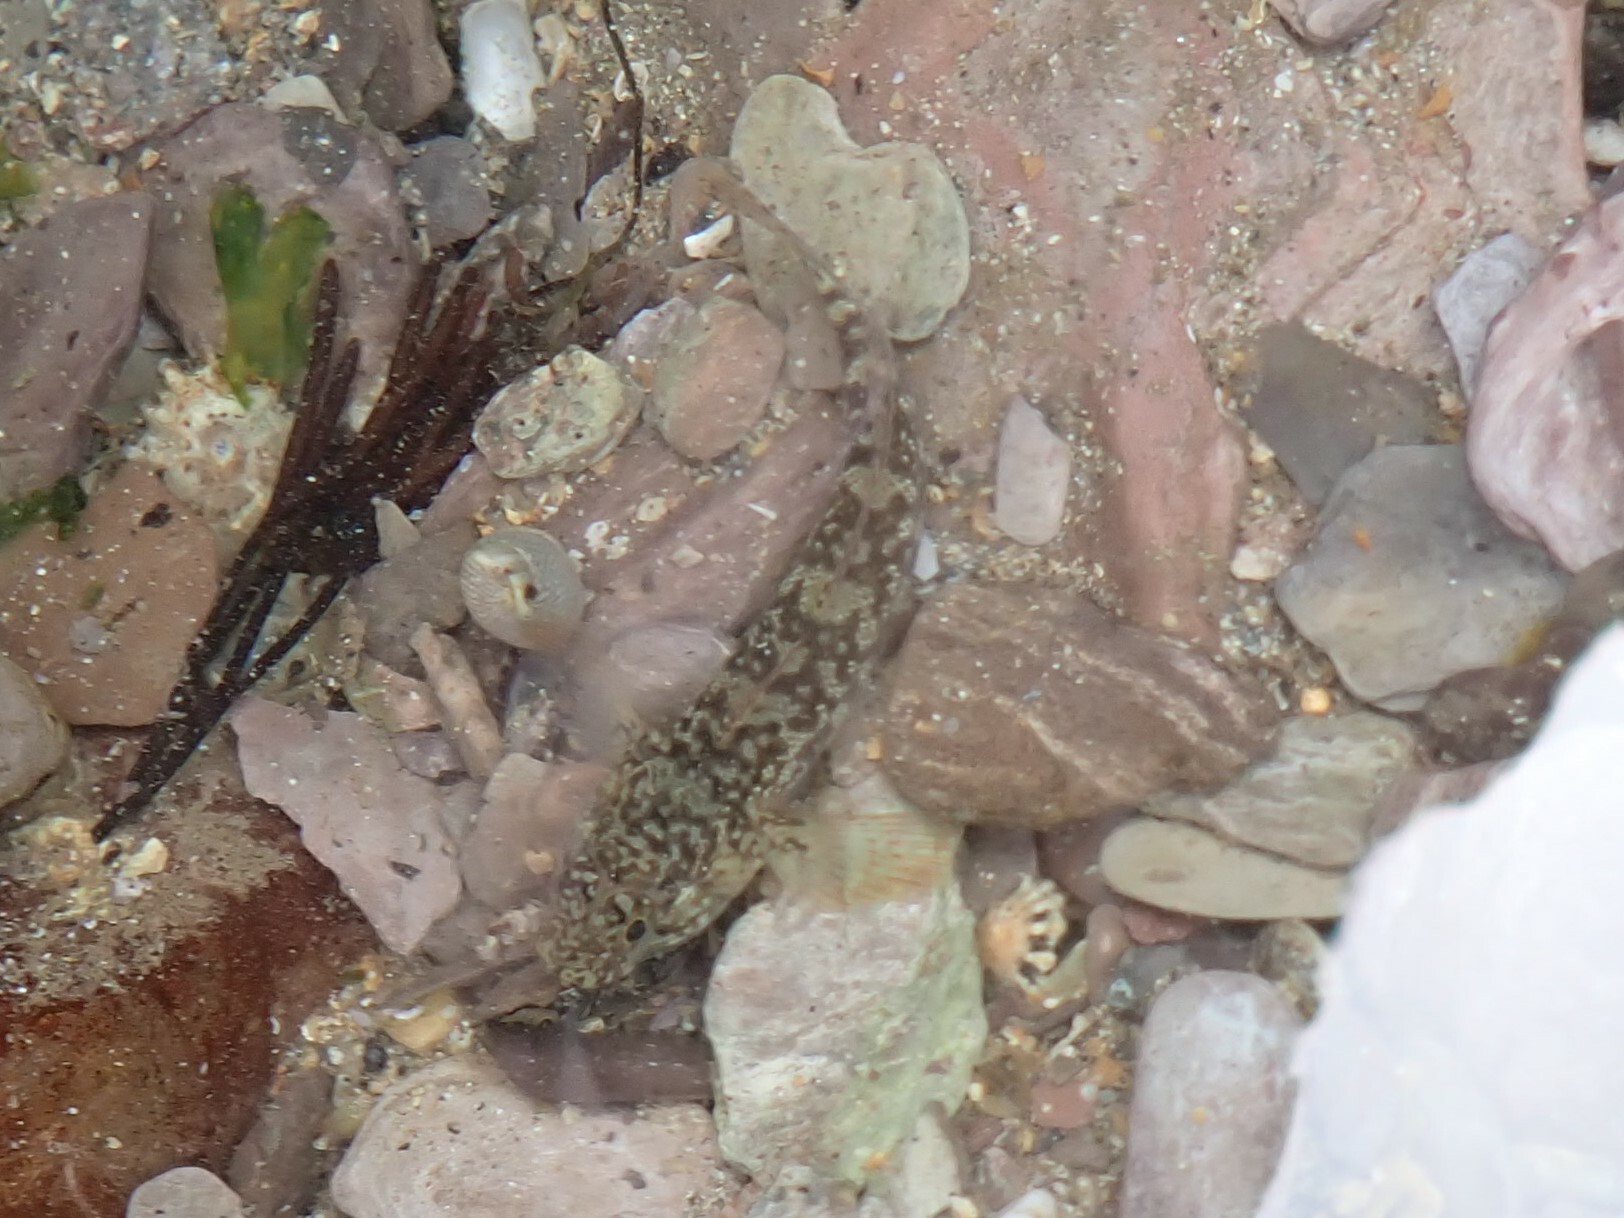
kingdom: Animalia
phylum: Chordata
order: Perciformes
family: Gobiidae
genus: Gobius
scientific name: Gobius paganellus
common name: Rock goby
